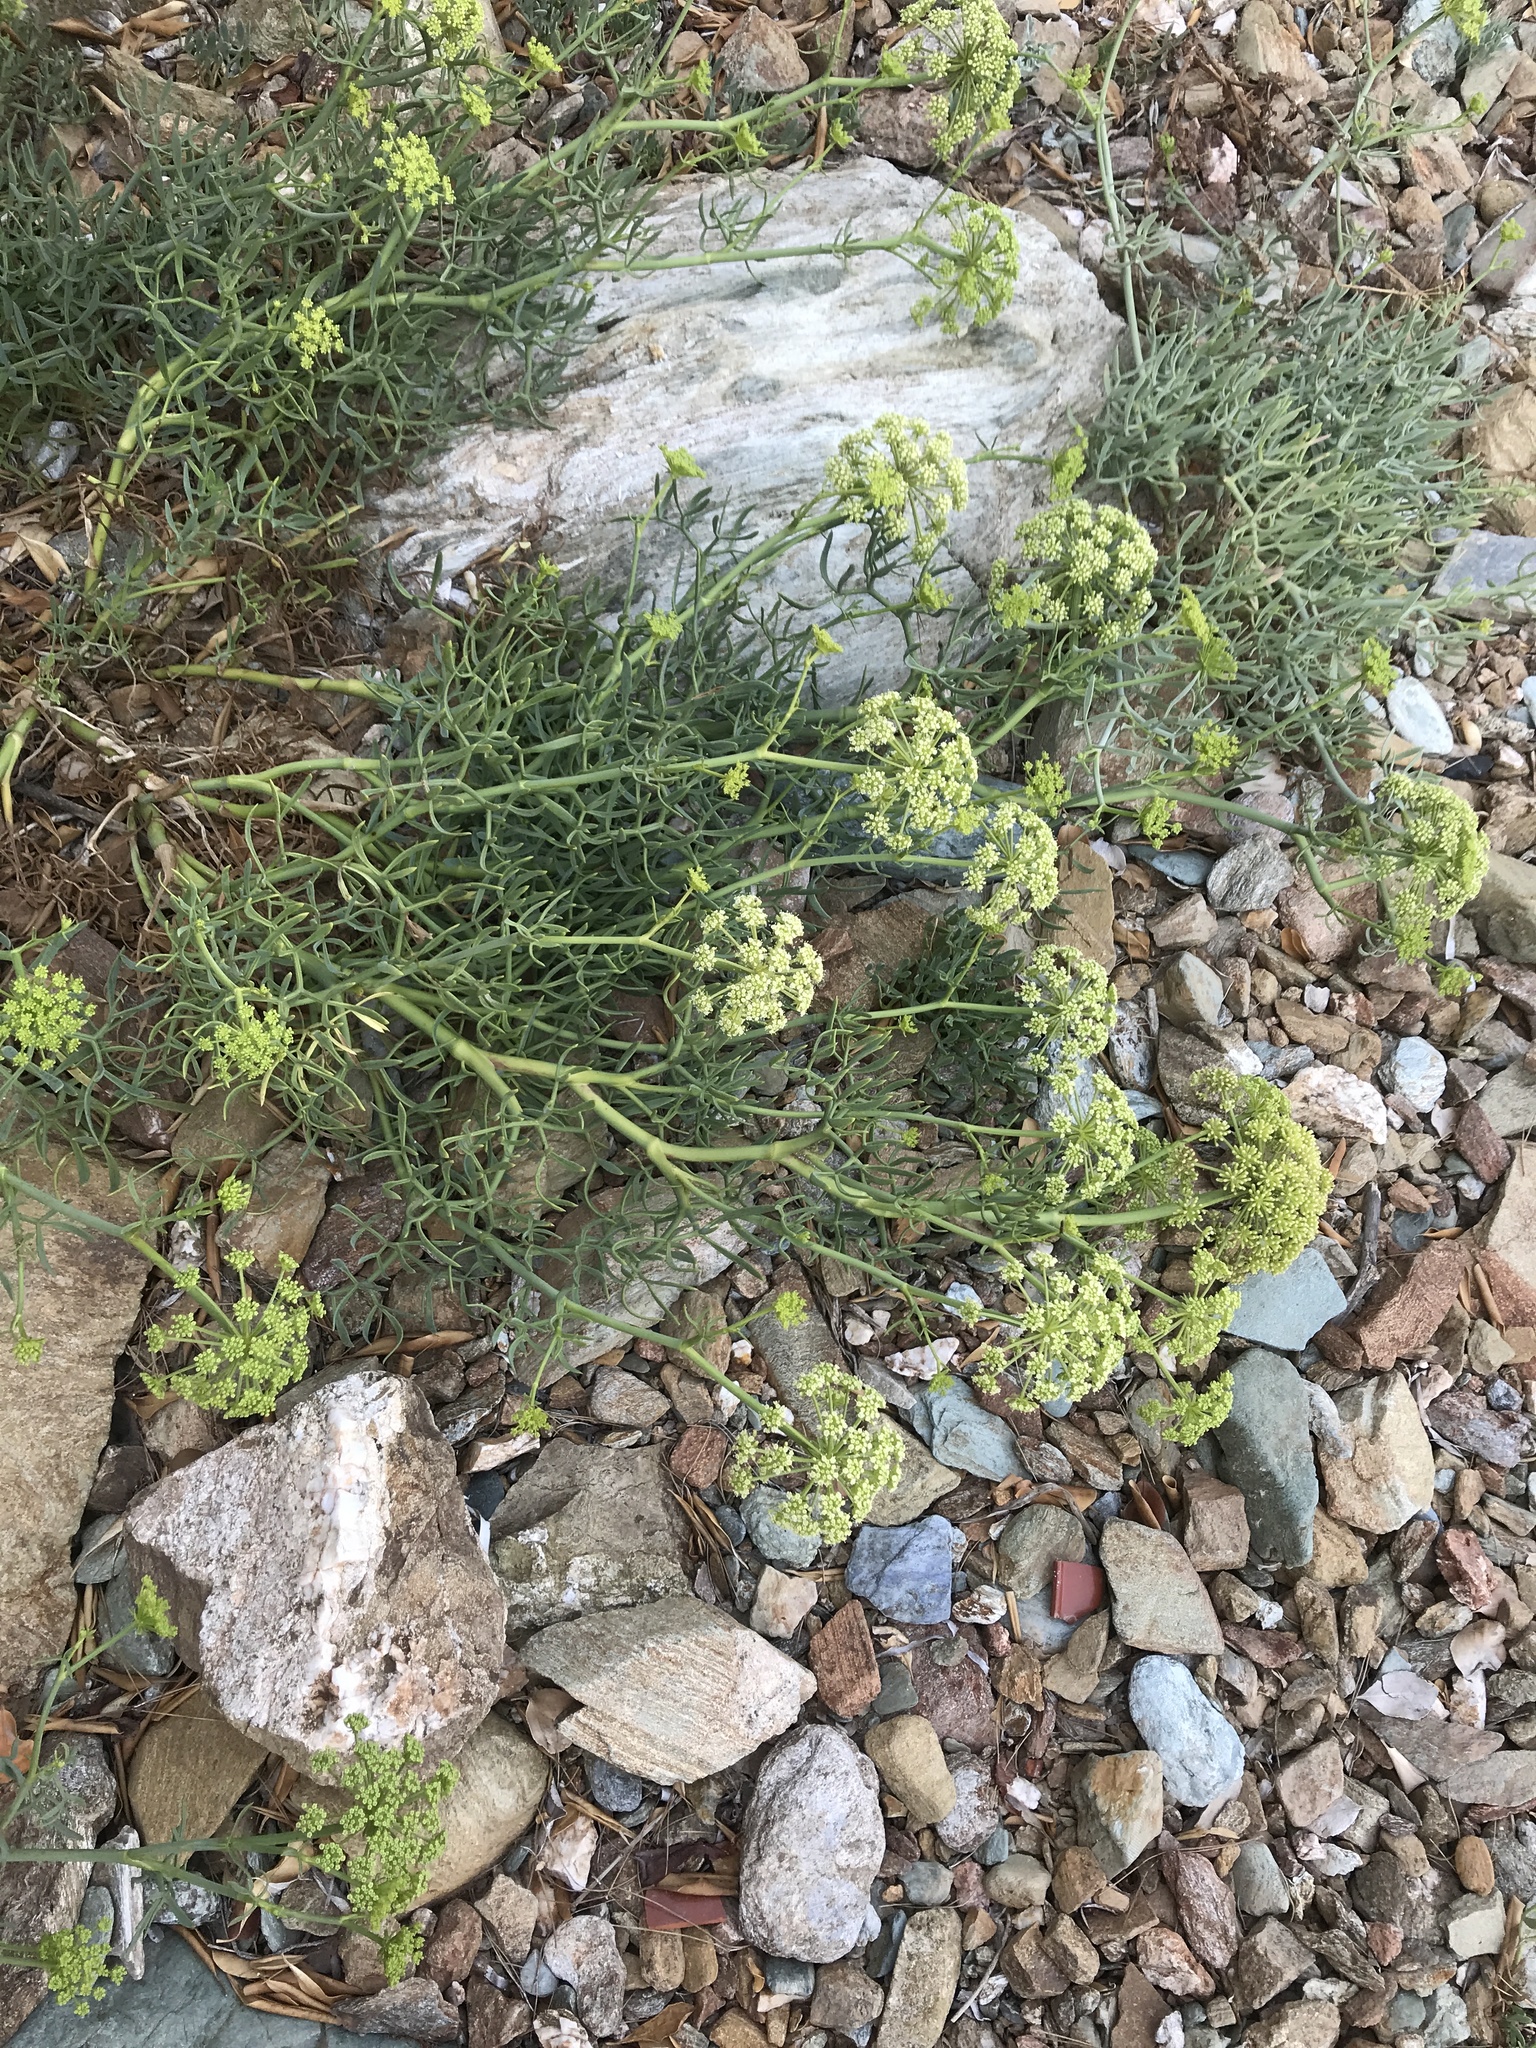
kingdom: Plantae
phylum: Tracheophyta
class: Magnoliopsida
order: Apiales
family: Apiaceae
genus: Crithmum
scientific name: Crithmum maritimum
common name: Rock samphire
